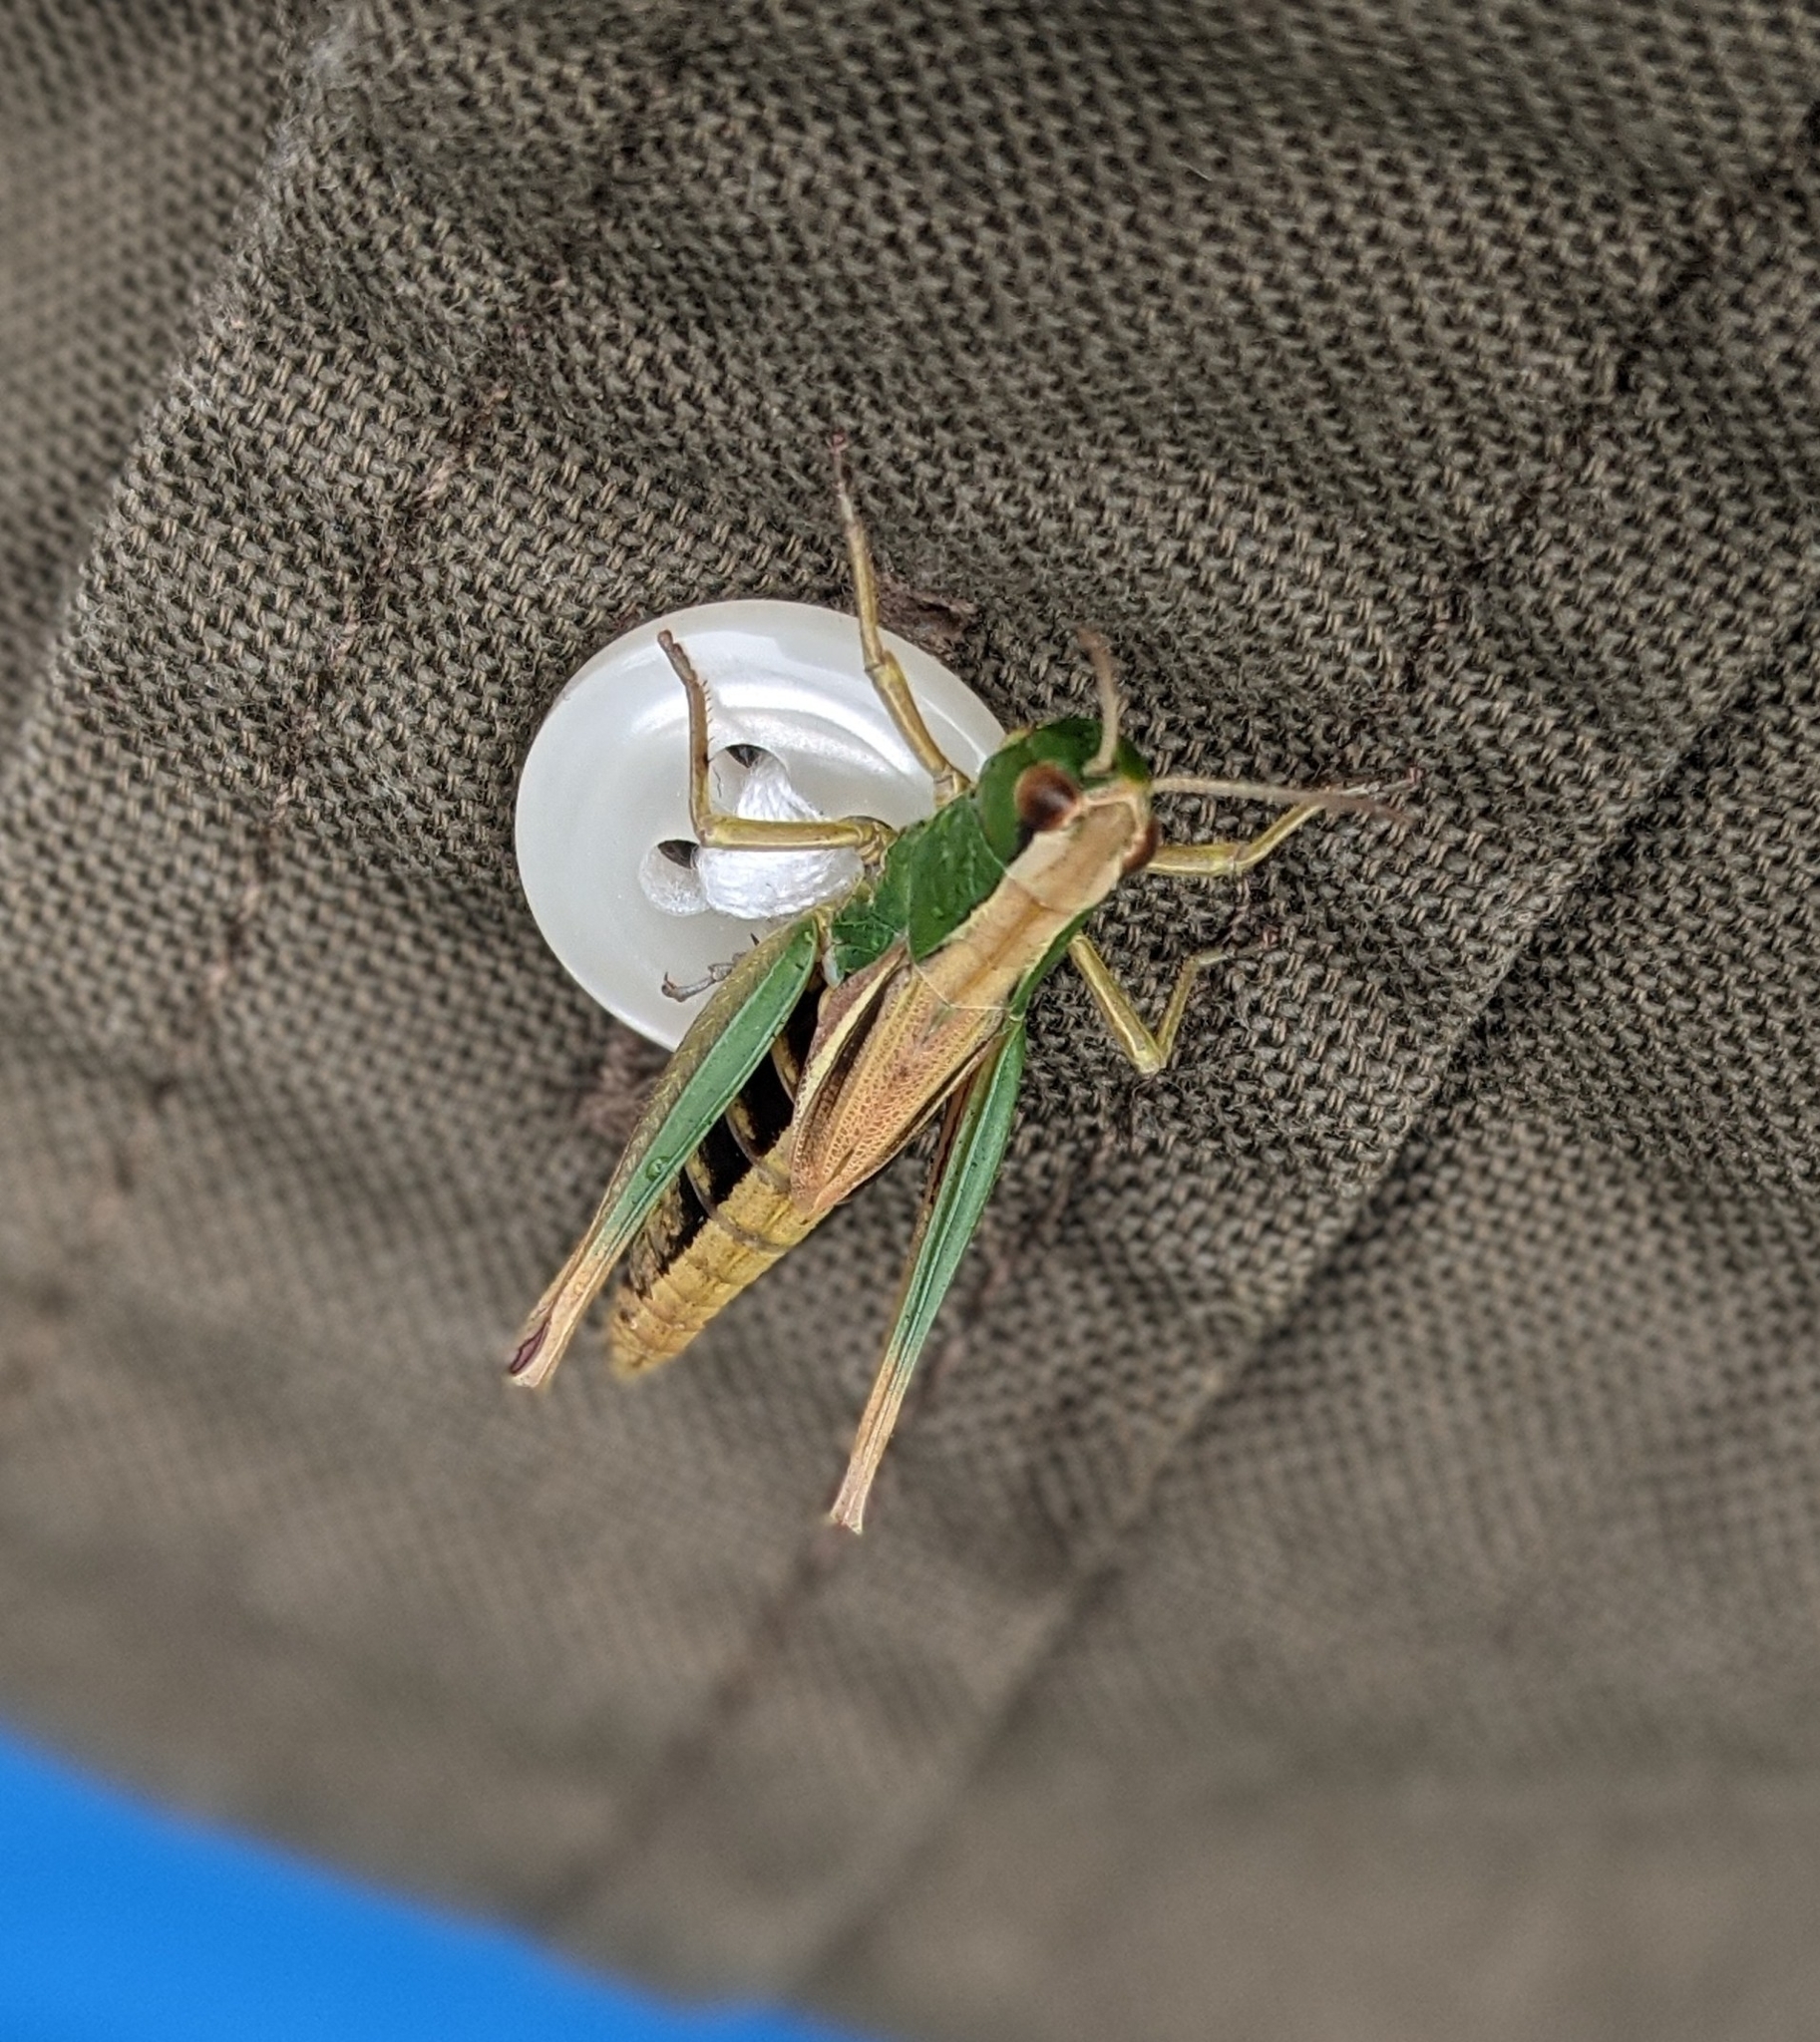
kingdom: Animalia
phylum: Arthropoda
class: Insecta
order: Orthoptera
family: Acrididae
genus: Pseudochorthippus
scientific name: Pseudochorthippus parallelus
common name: Meadow grasshopper
